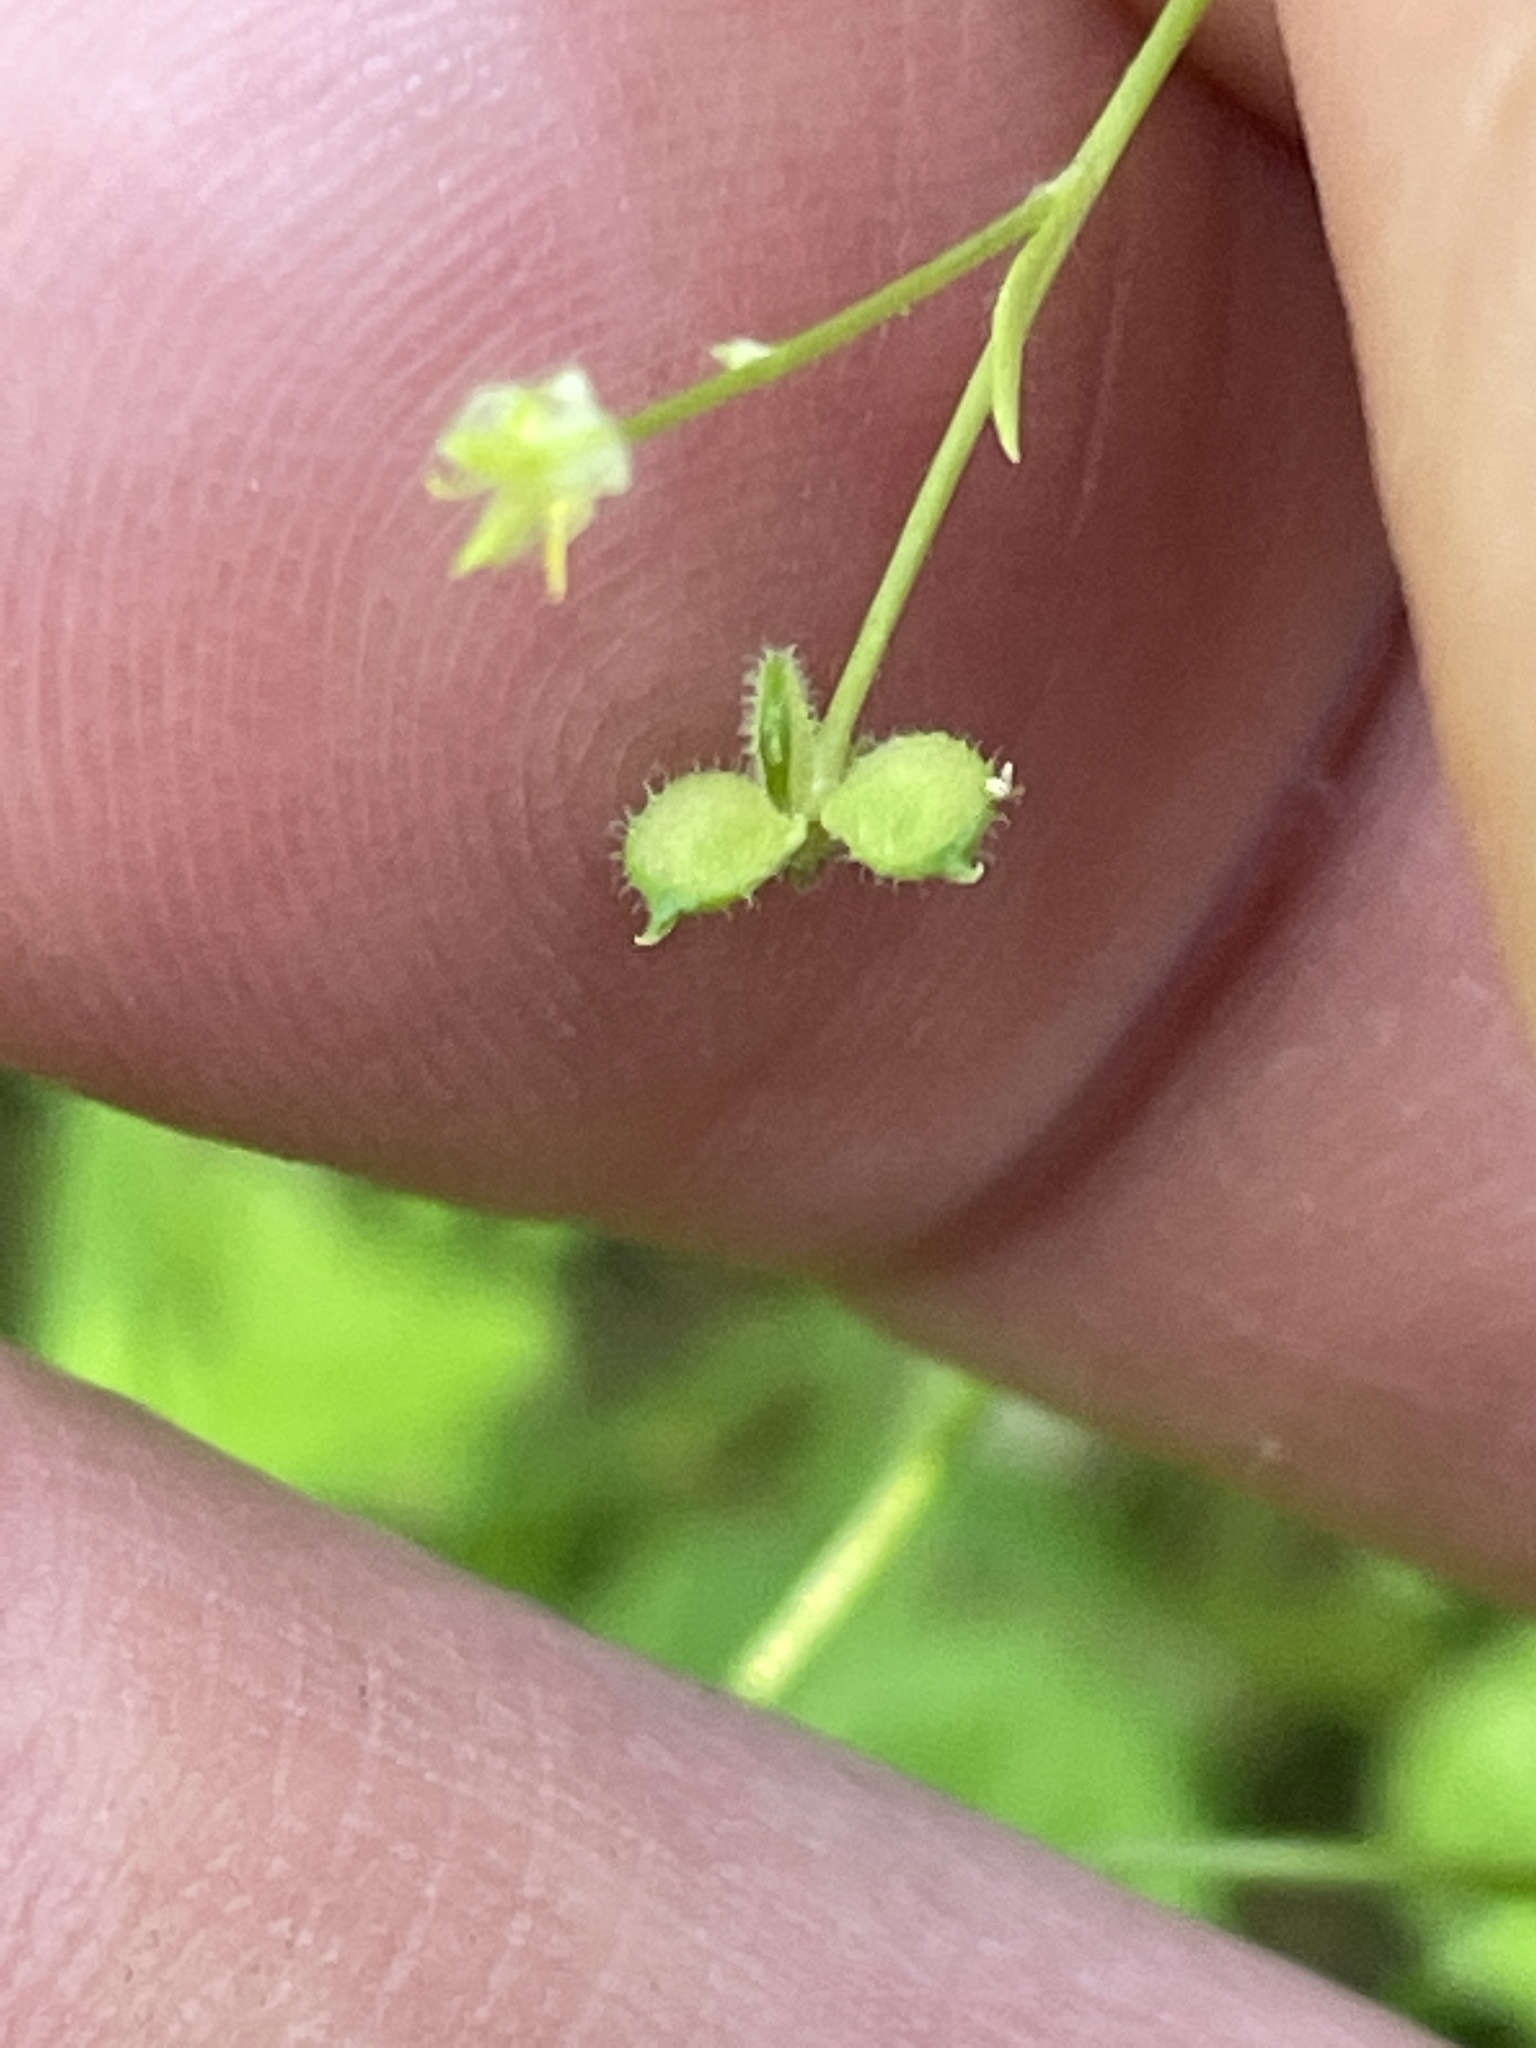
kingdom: Plantae
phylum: Tracheophyta
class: Magnoliopsida
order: Ranunculales
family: Ranunculaceae
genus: Ranunculus
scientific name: Ranunculus hebecarpus
